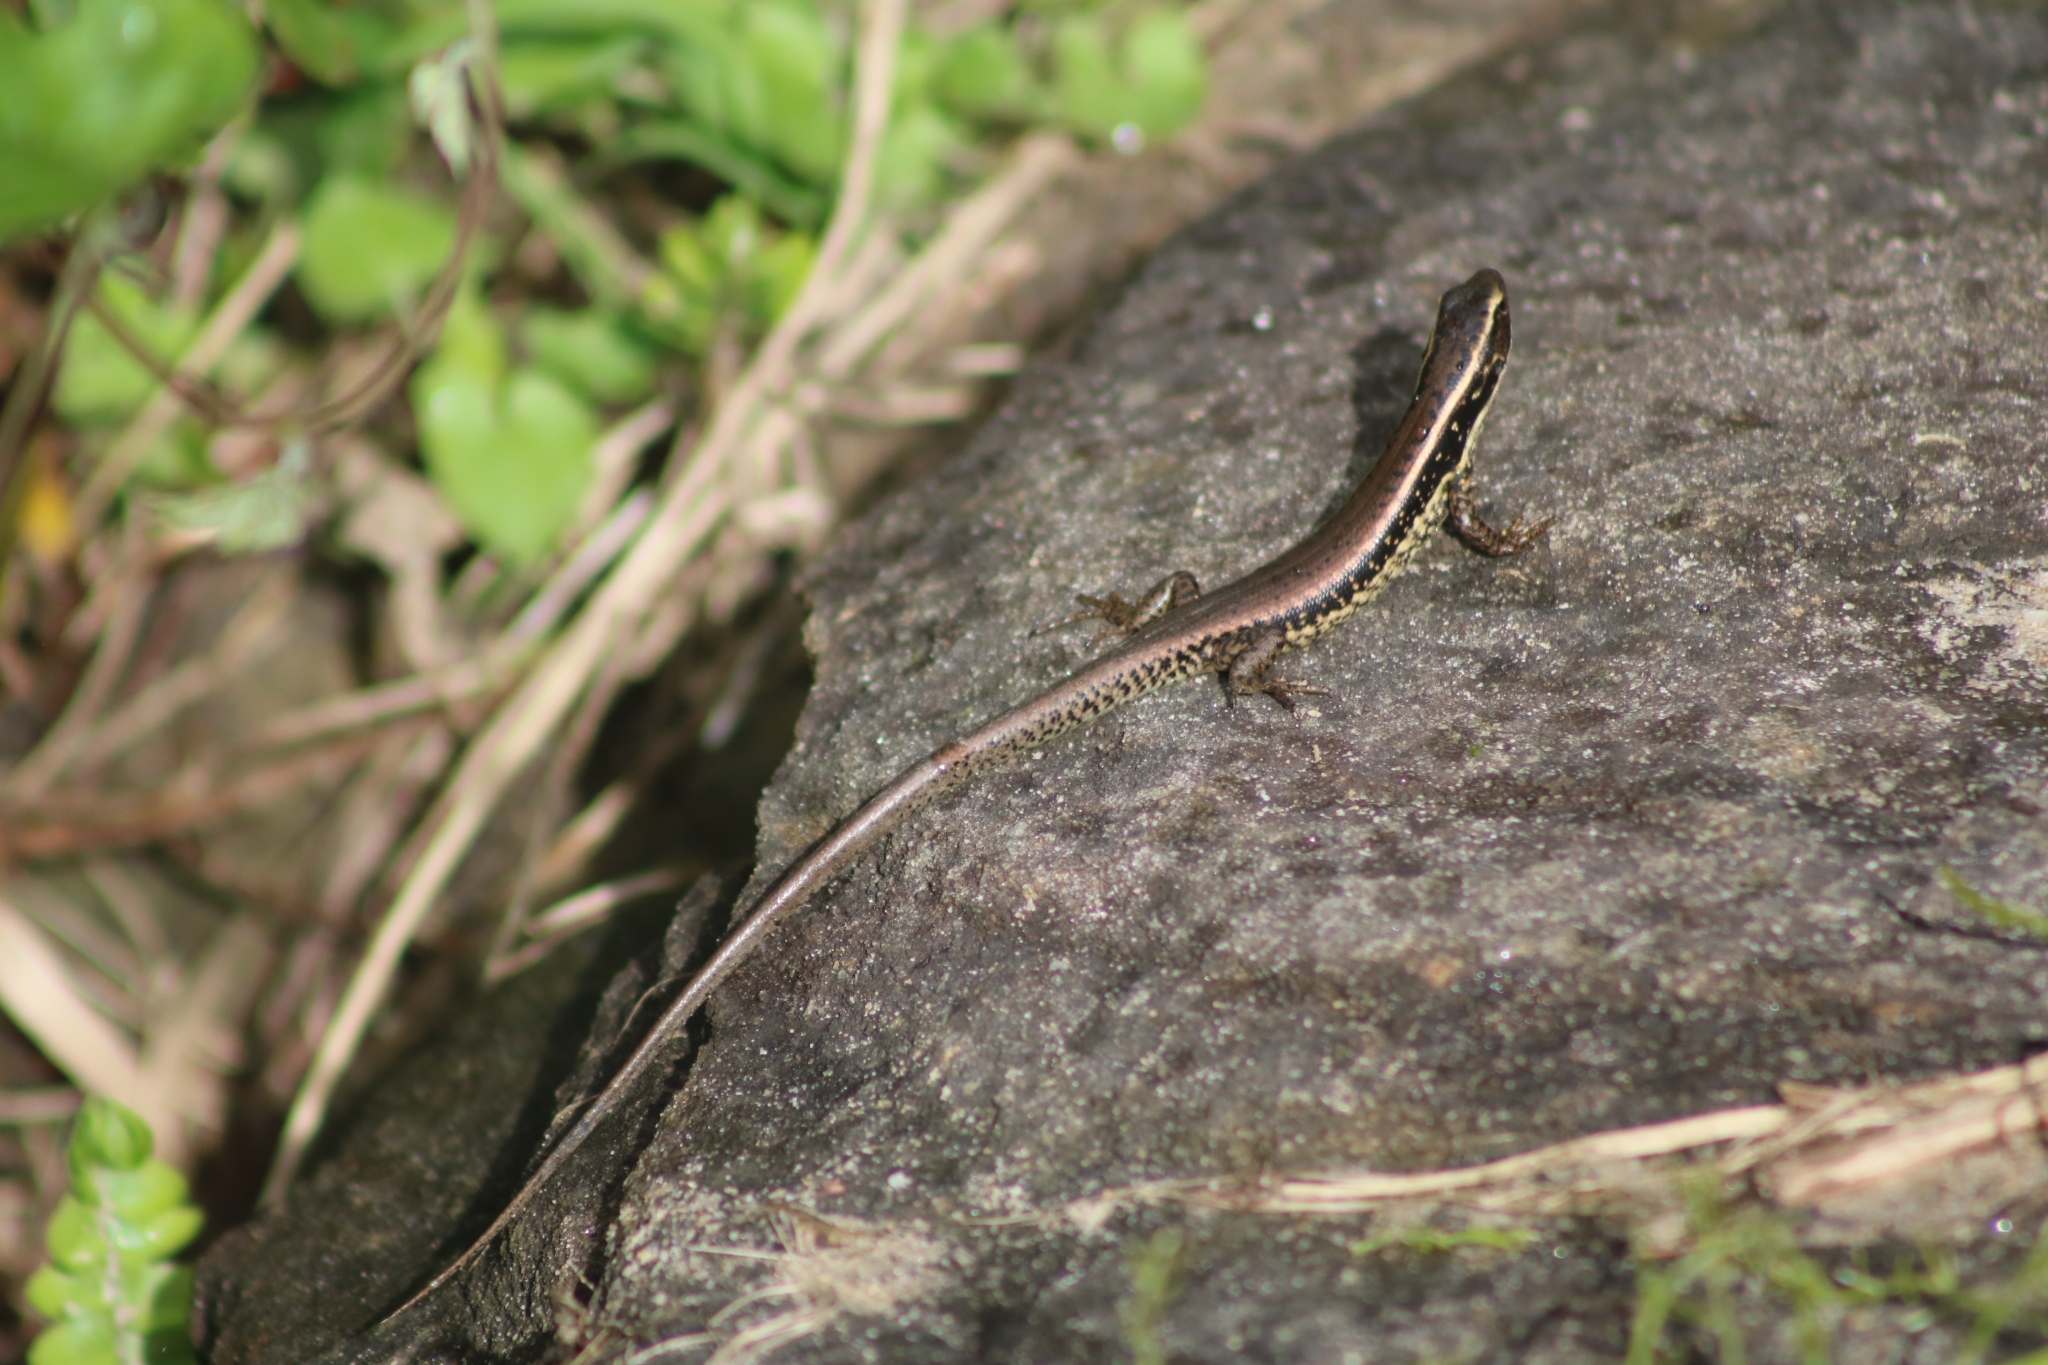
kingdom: Animalia
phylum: Chordata
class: Squamata
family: Scincidae
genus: Eulamprus
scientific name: Eulamprus quoyii
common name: Eastern water skink
